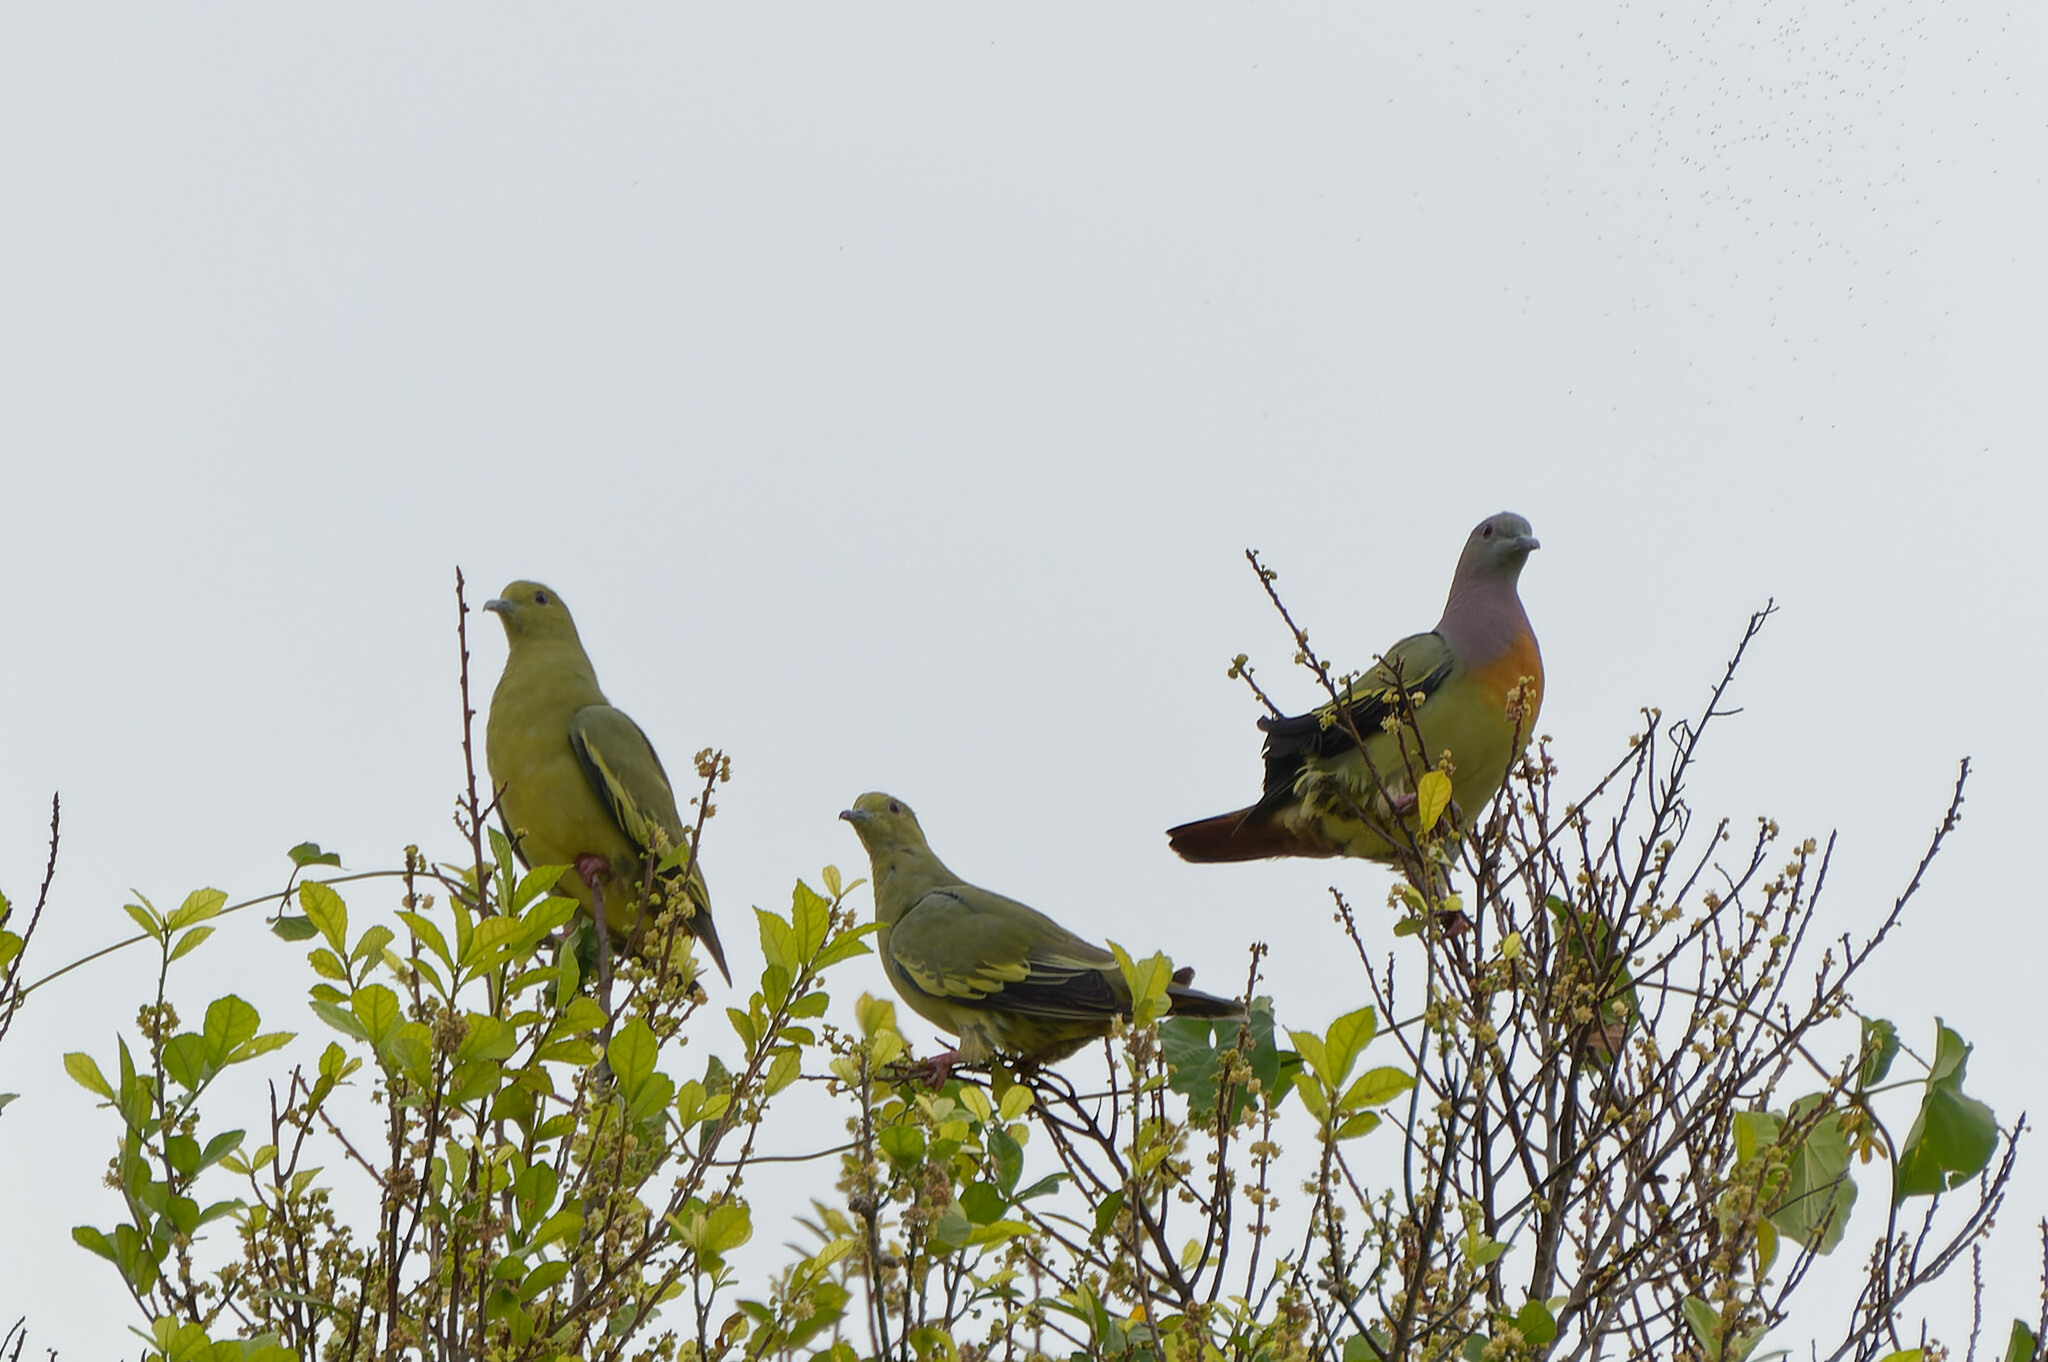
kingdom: Animalia
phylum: Chordata
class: Aves
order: Columbiformes
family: Columbidae
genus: Treron
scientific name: Treron vernans
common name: Pink-necked green pigeon
